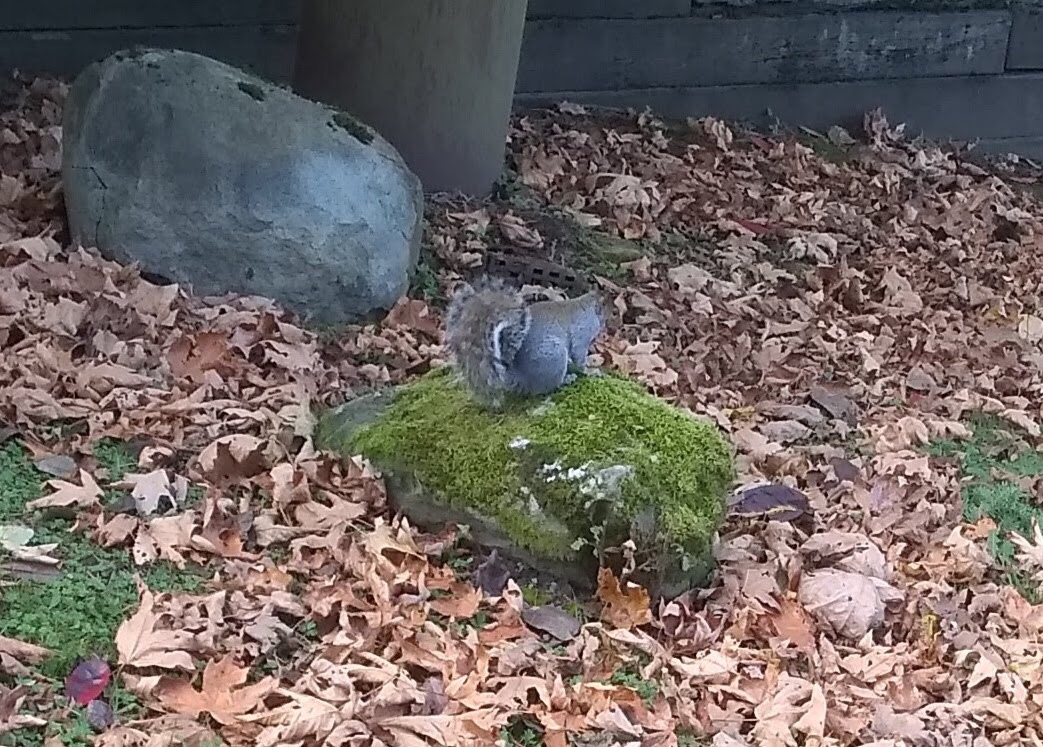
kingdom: Animalia
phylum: Chordata
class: Mammalia
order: Rodentia
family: Sciuridae
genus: Sciurus
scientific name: Sciurus carolinensis
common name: Eastern gray squirrel
